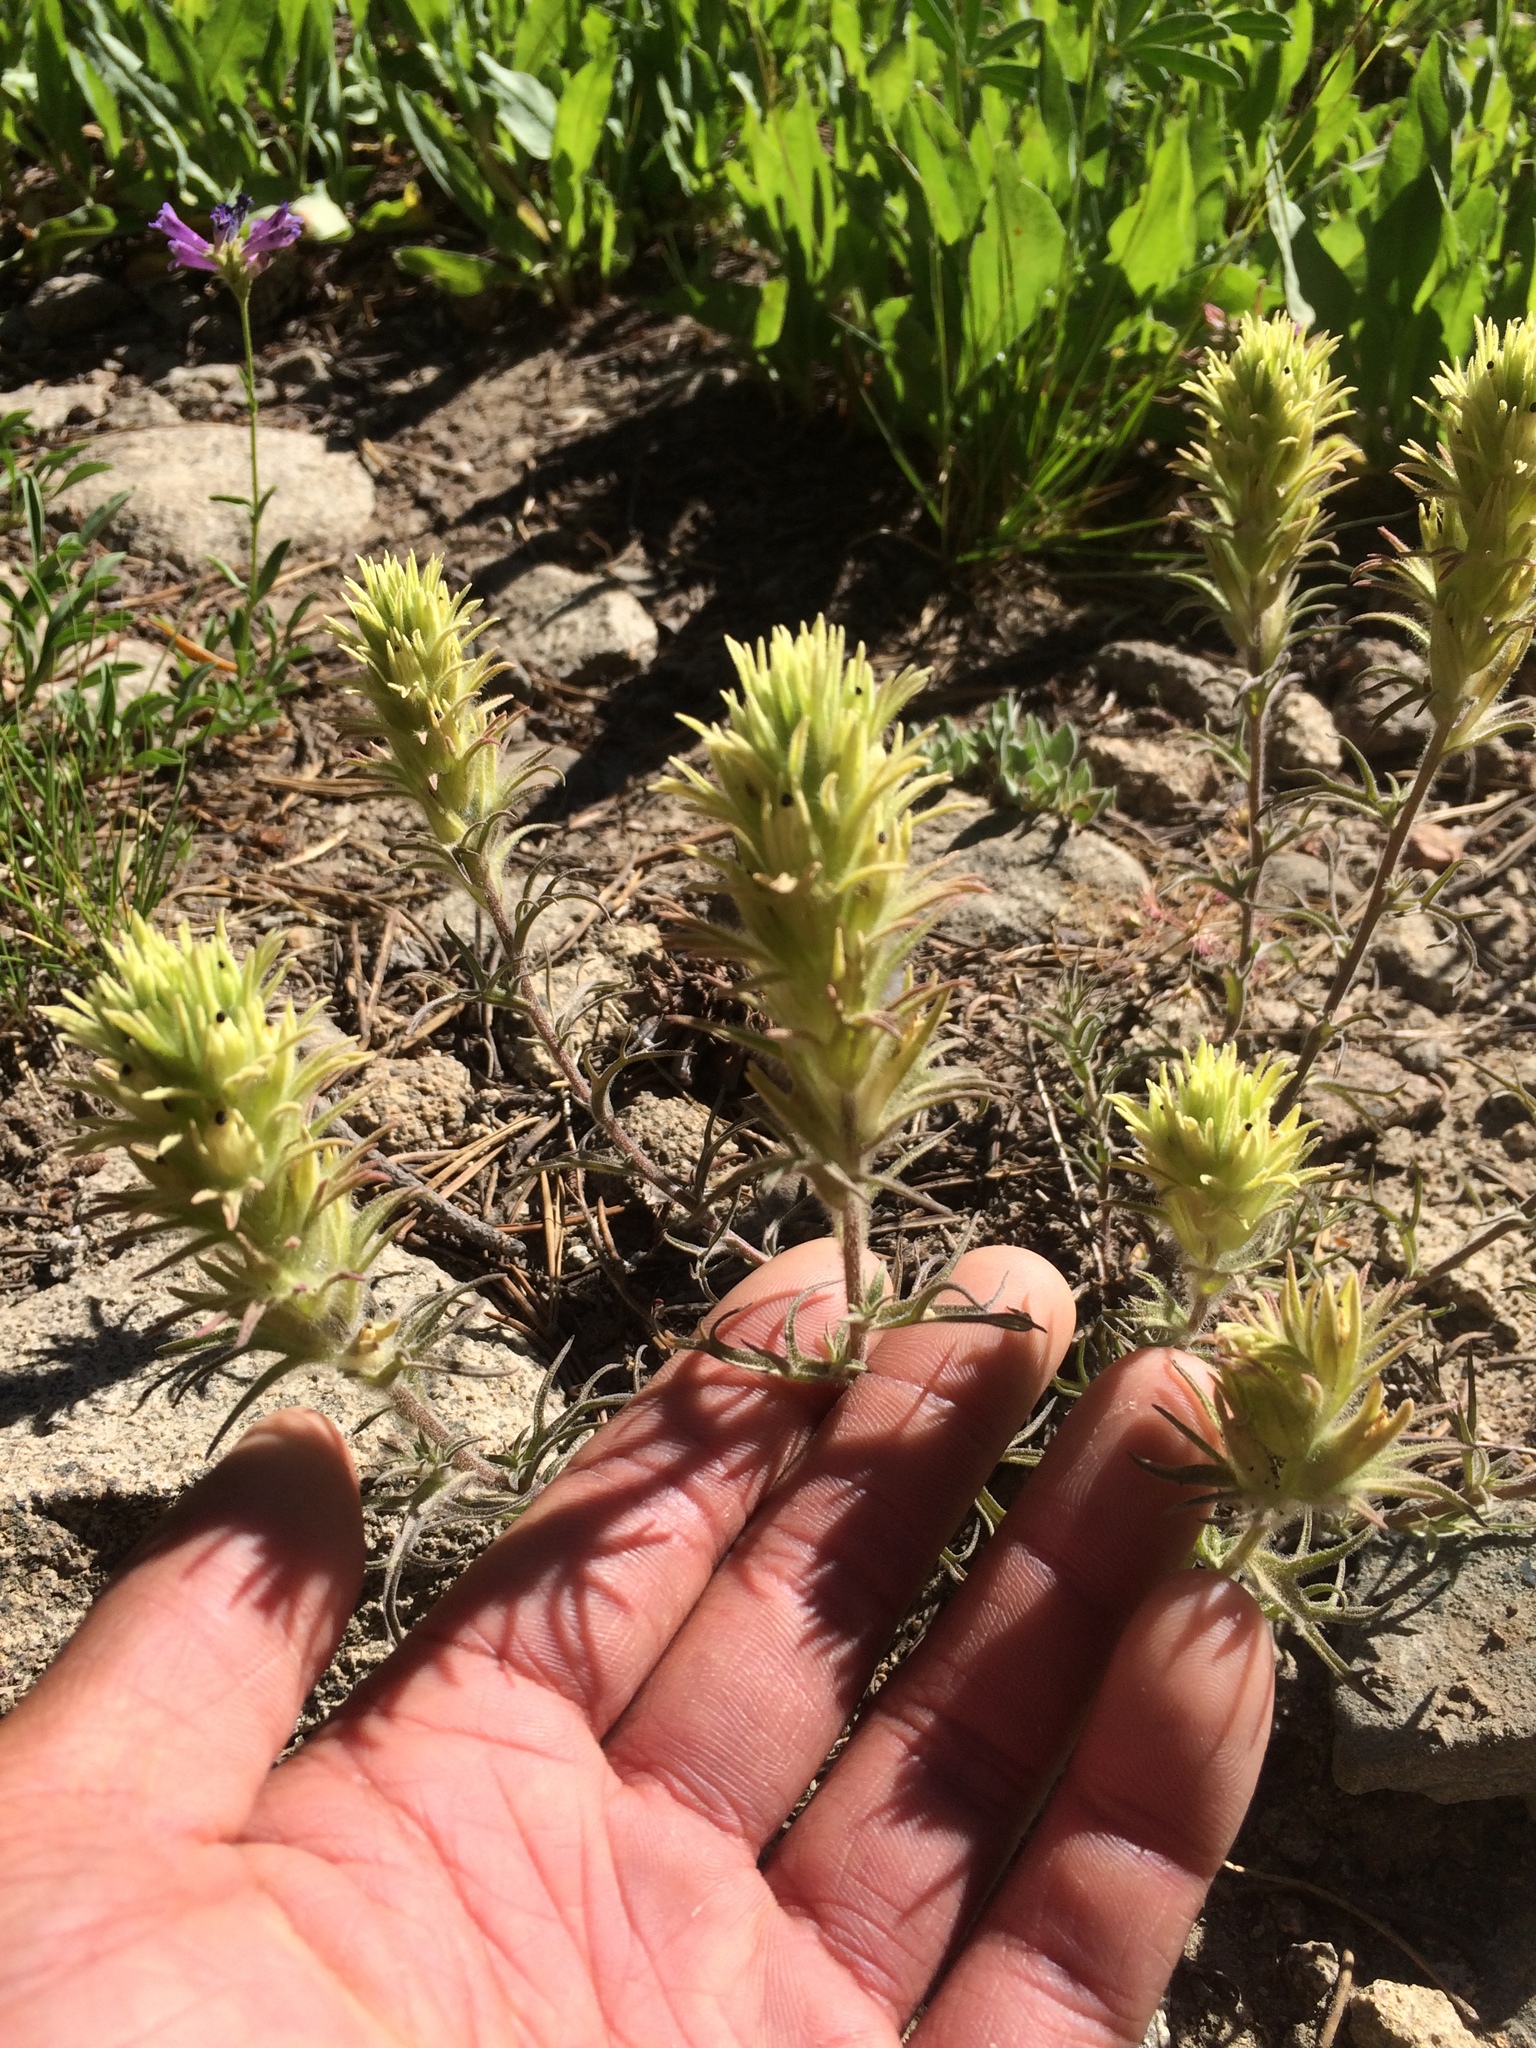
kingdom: Plantae
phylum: Tracheophyta
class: Magnoliopsida
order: Lamiales
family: Orobanchaceae
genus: Castilleja
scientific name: Castilleja nana
